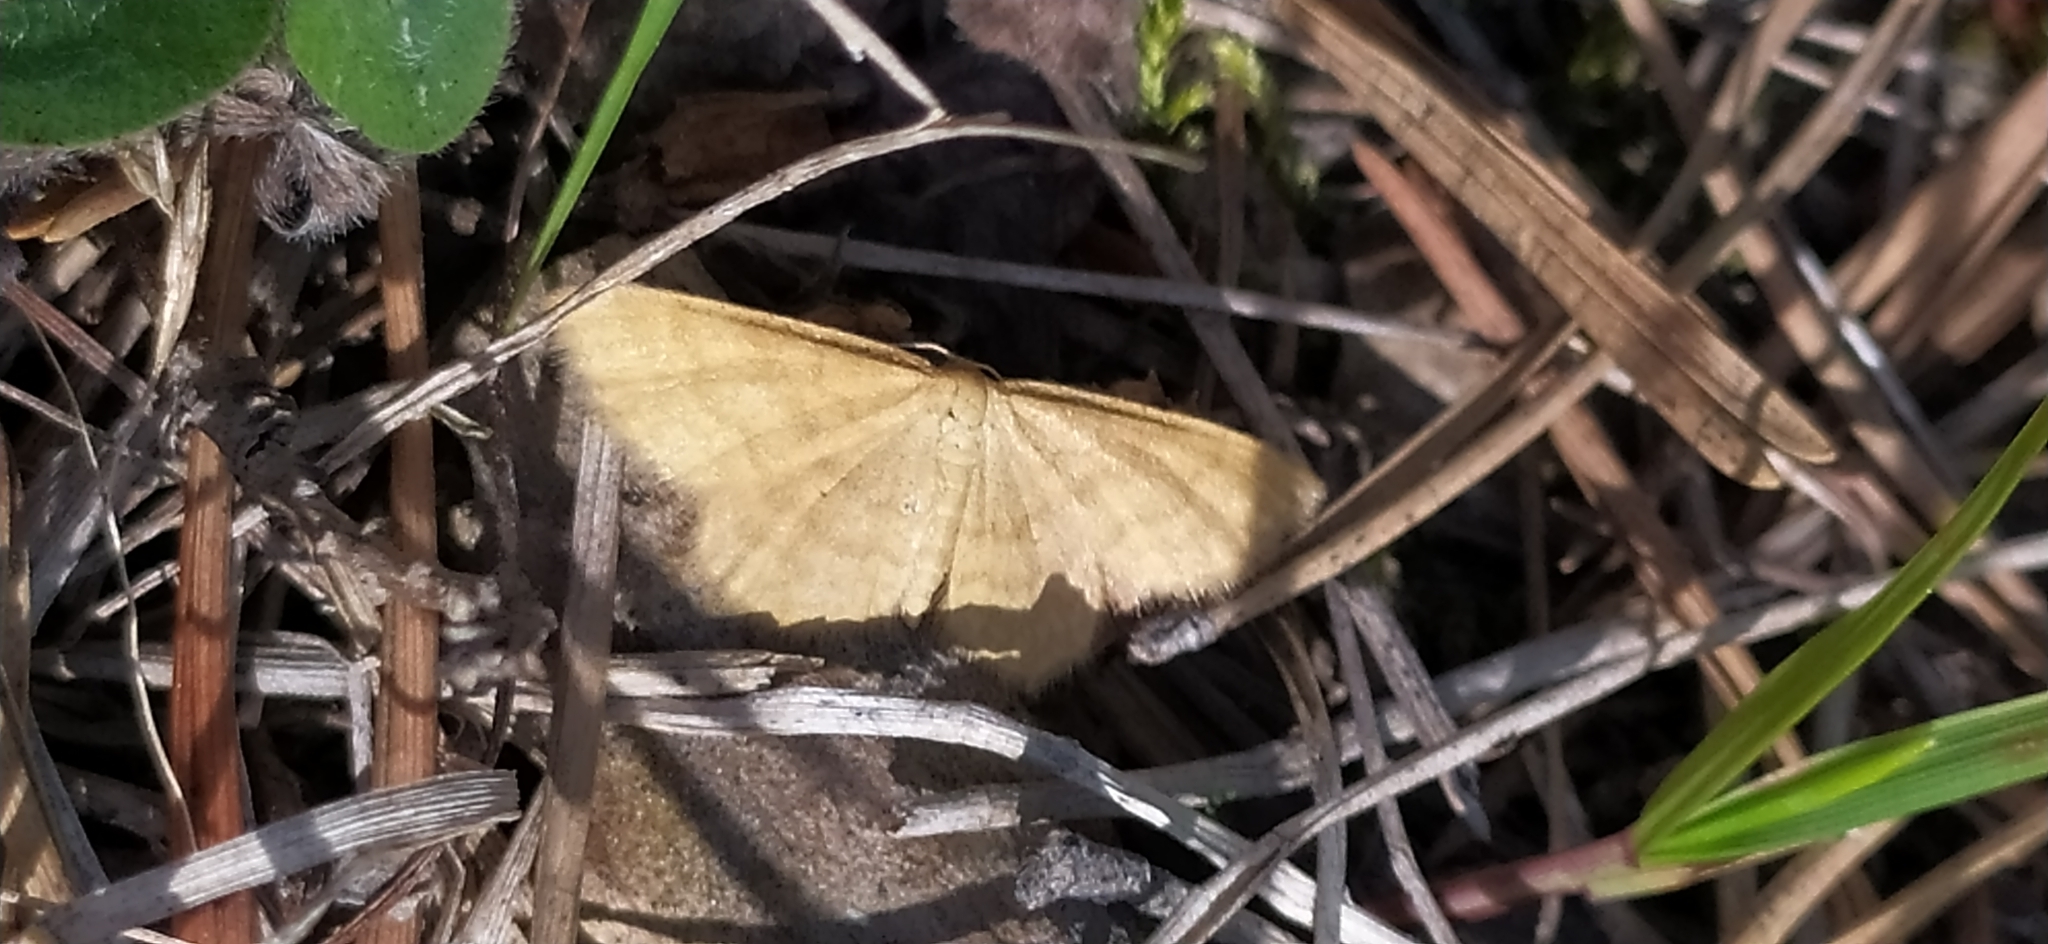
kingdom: Animalia
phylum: Arthropoda
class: Insecta
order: Lepidoptera
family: Geometridae
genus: Idaea
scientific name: Idaea serpentata
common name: Ochraceous wave
